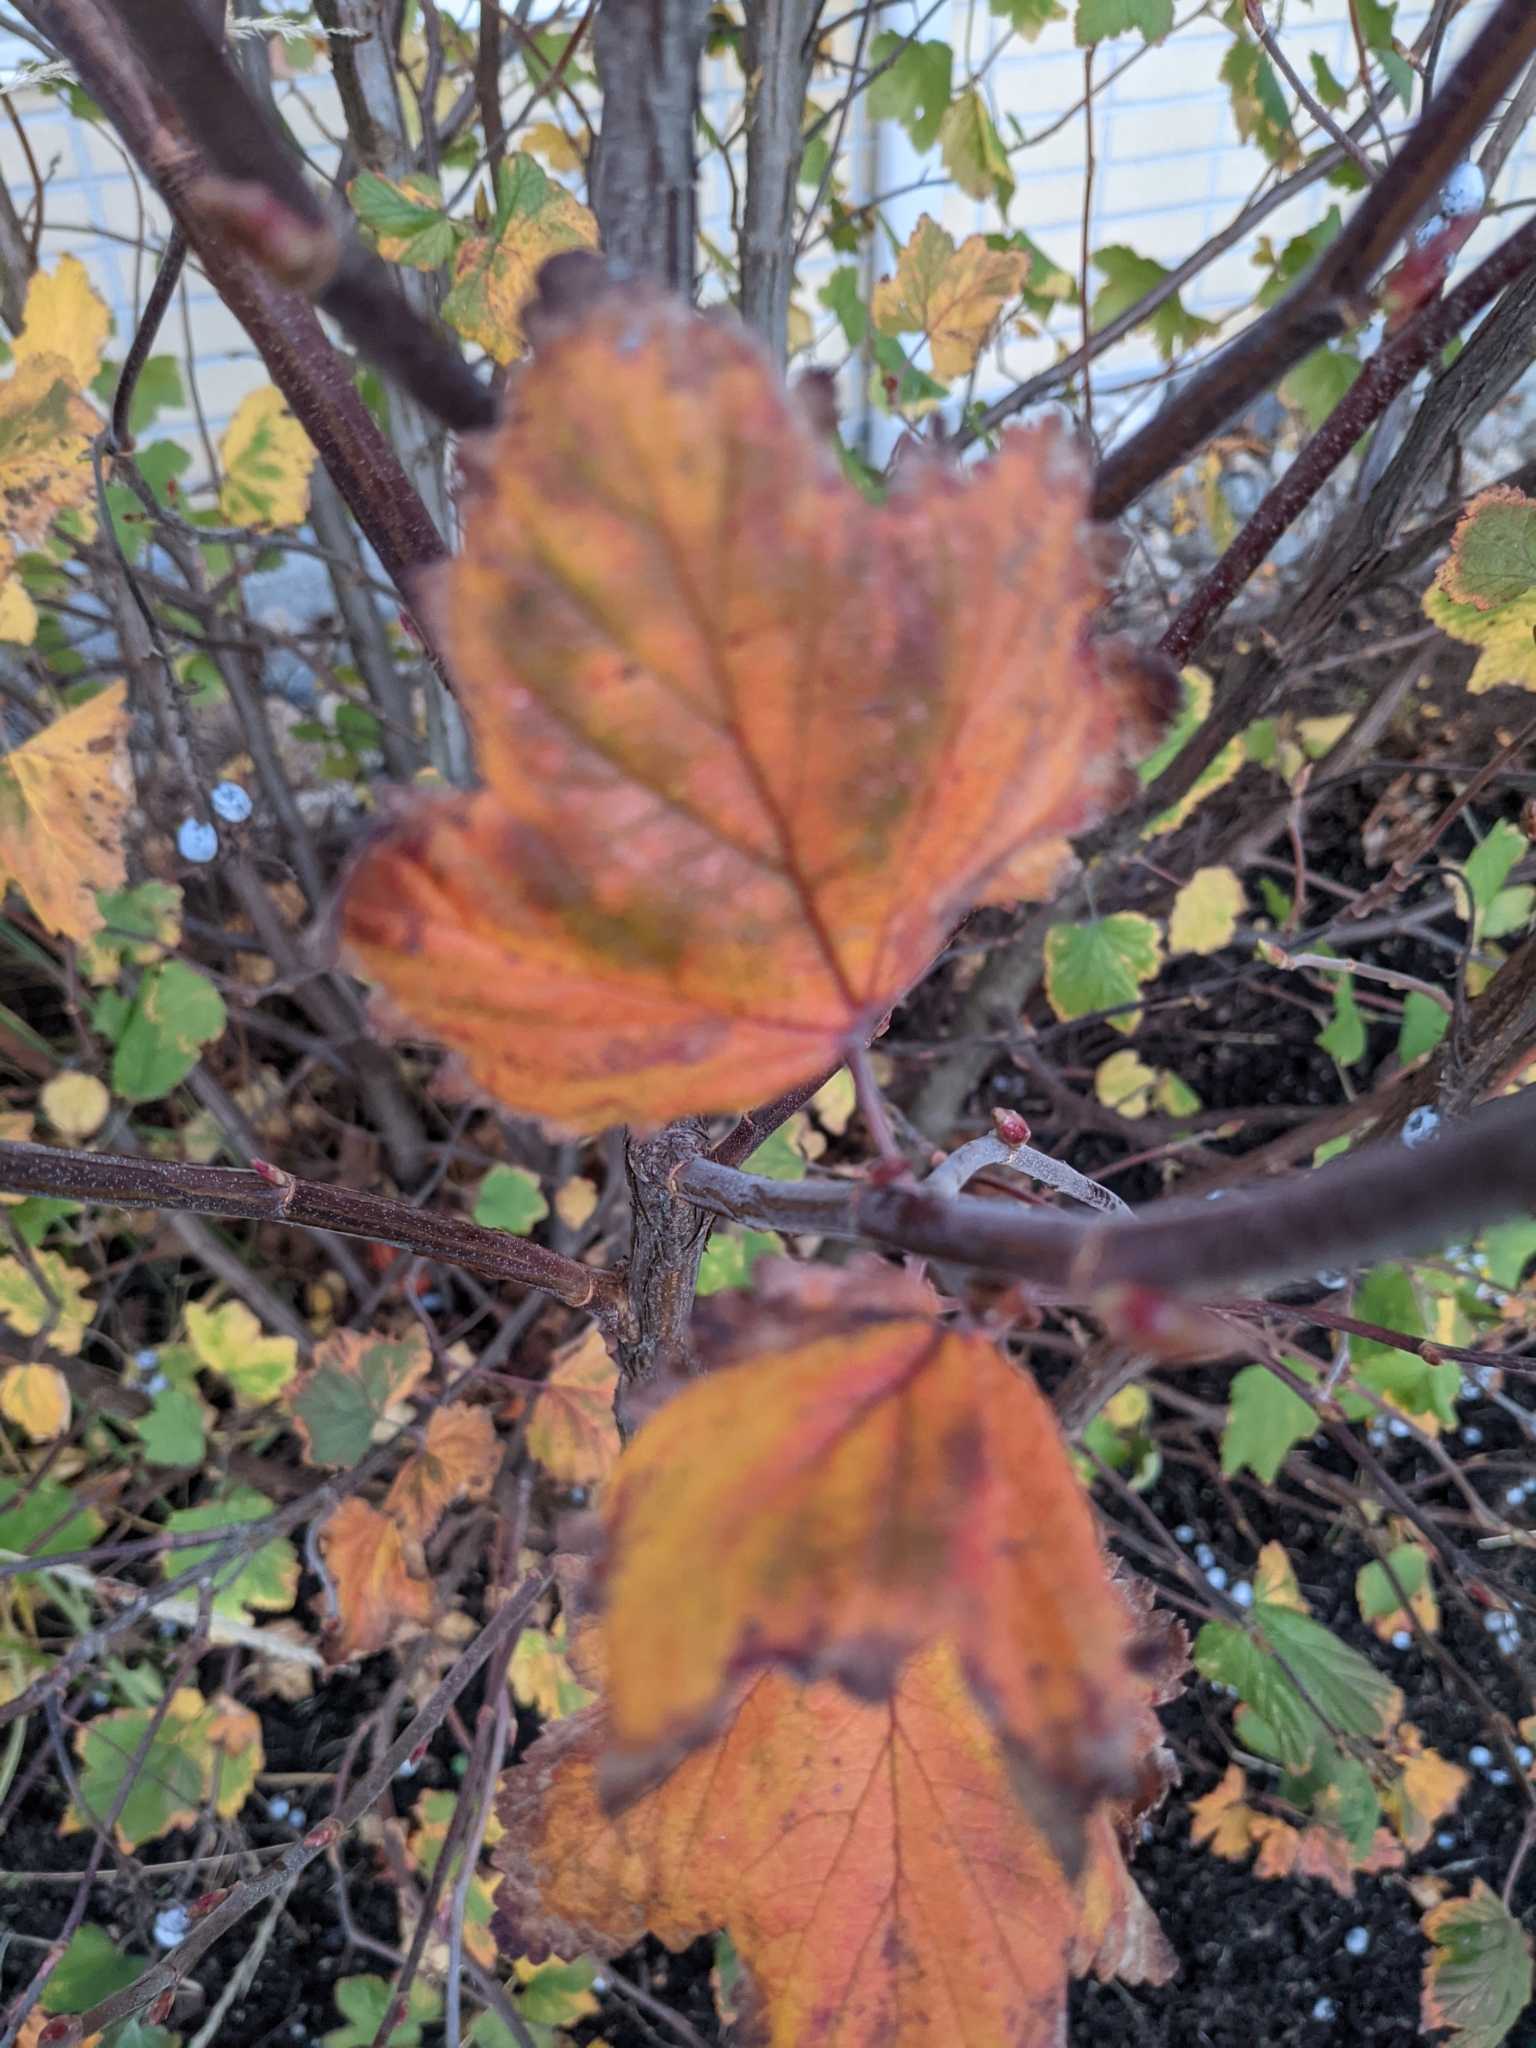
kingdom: Plantae
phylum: Tracheophyta
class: Magnoliopsida
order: Saxifragales
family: Grossulariaceae
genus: Ribes
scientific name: Ribes sanguineum
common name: Flowering currant
